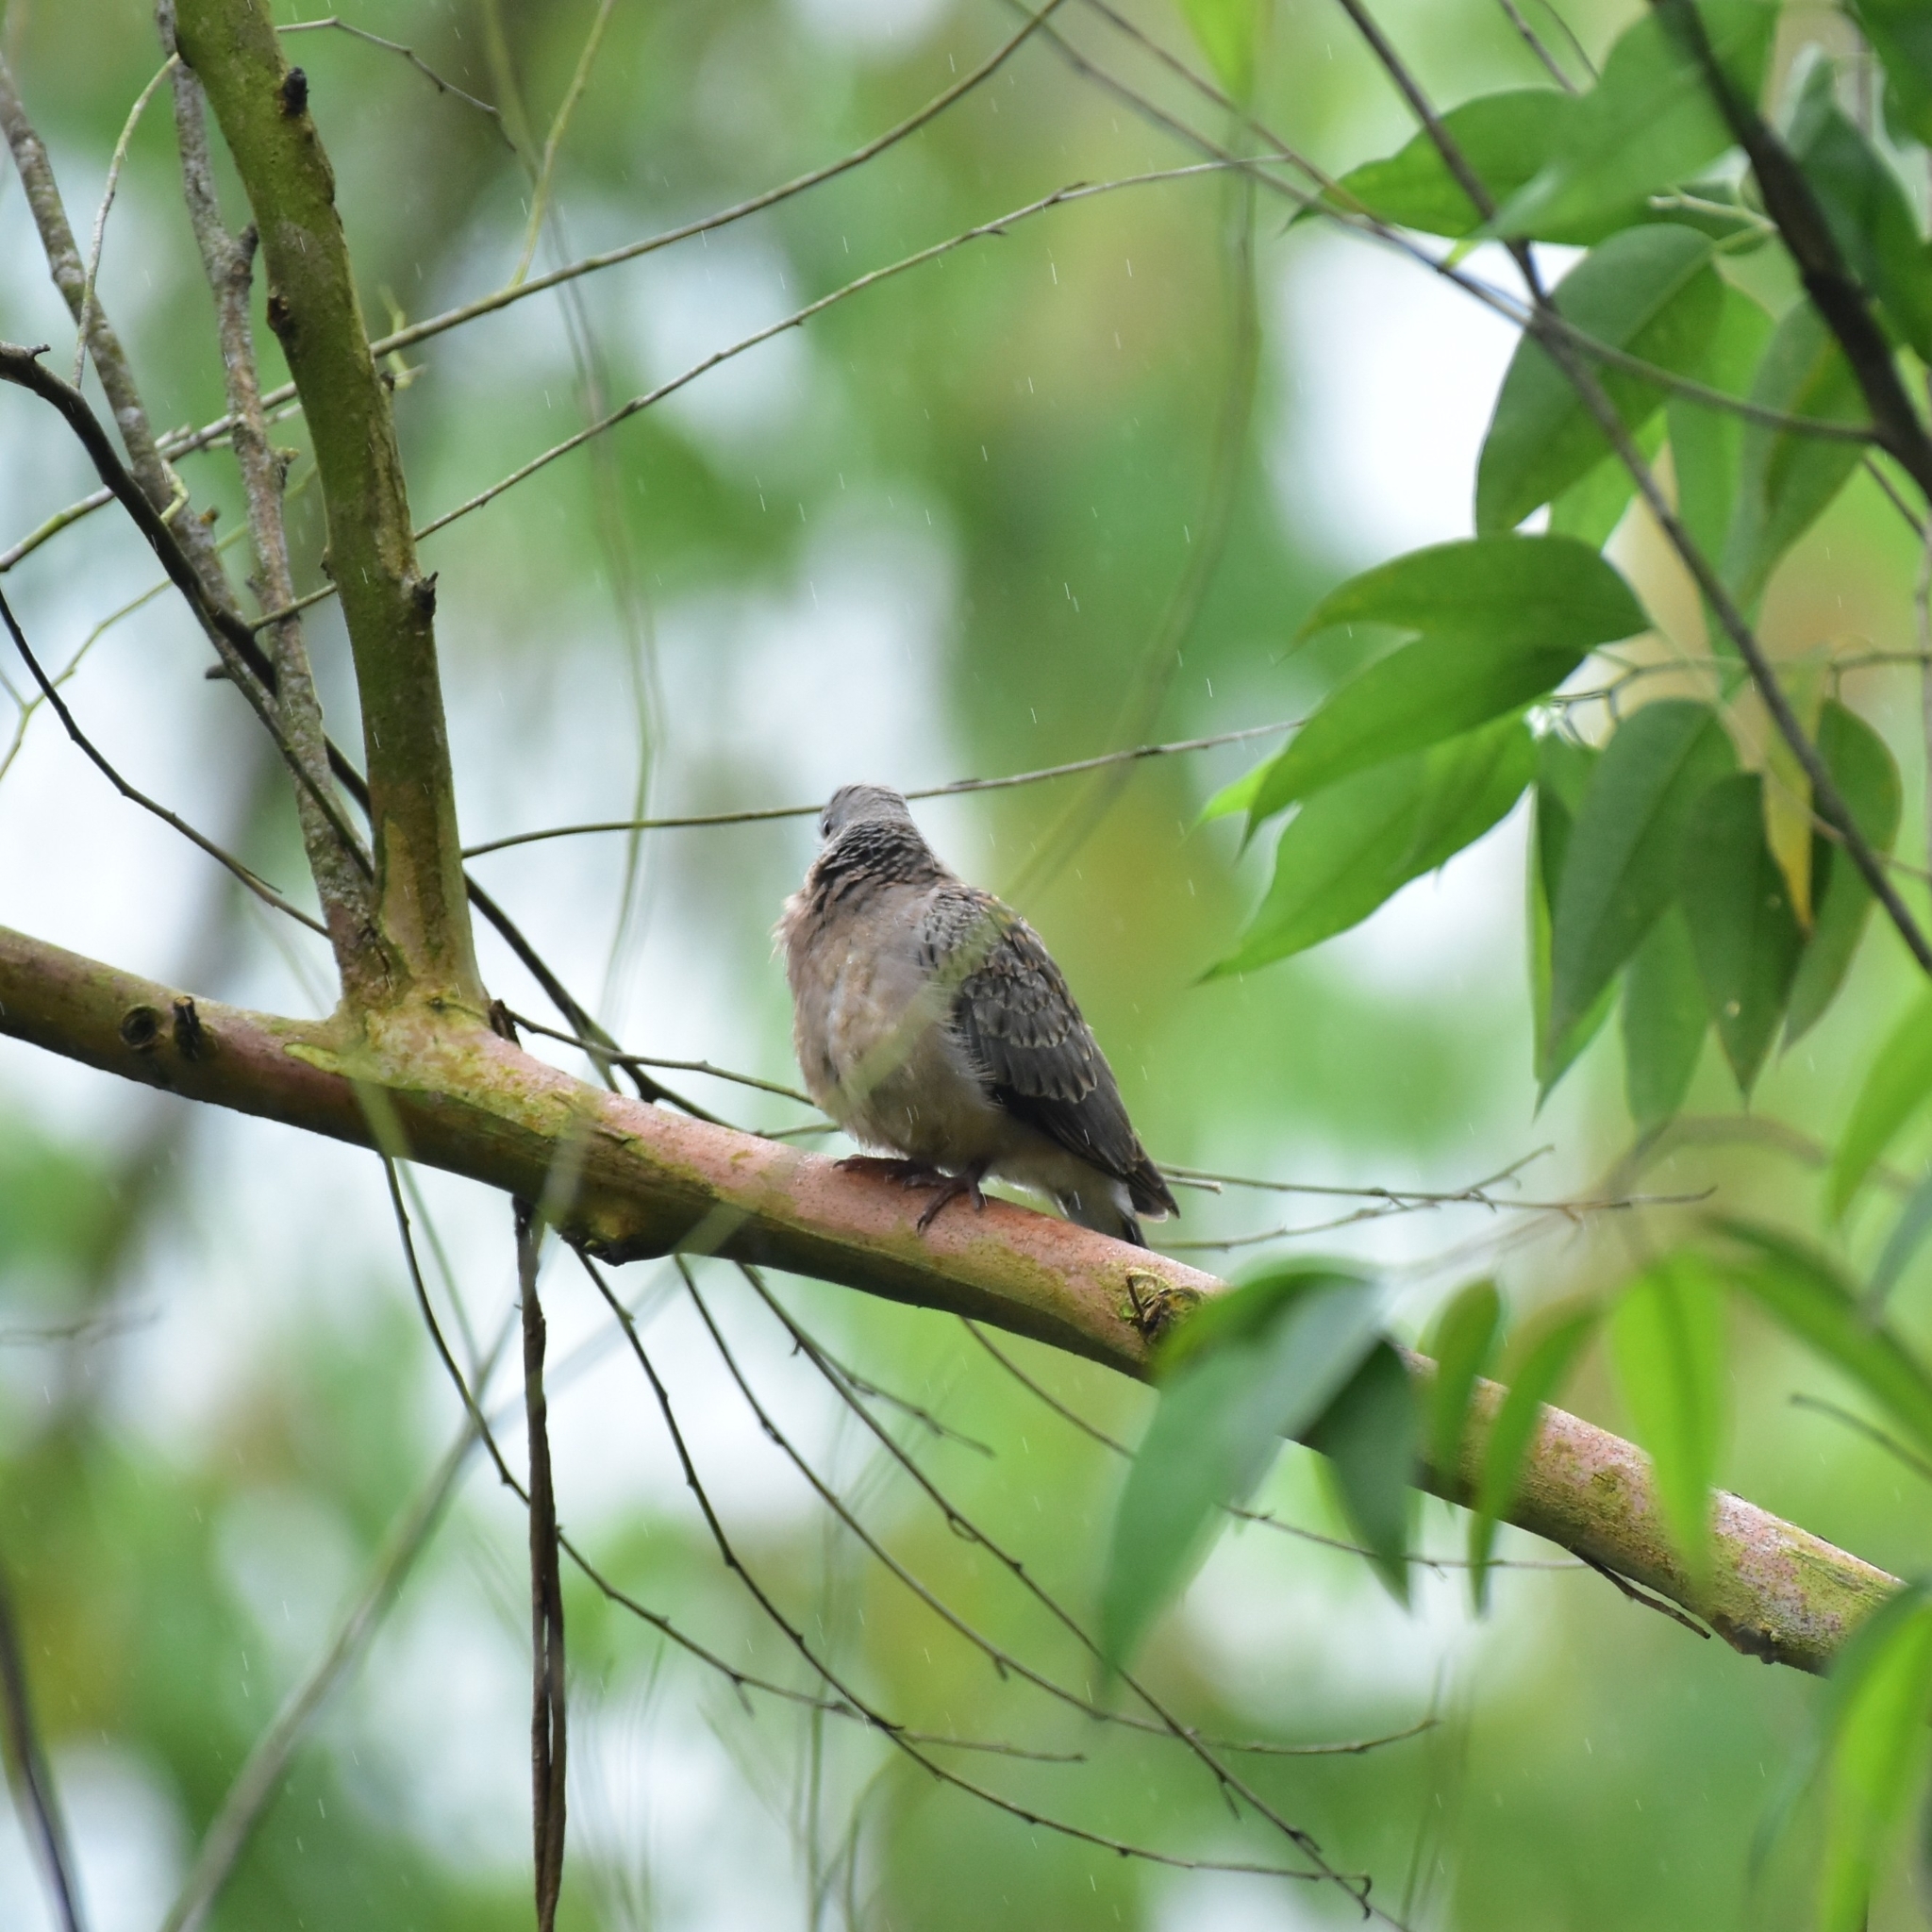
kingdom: Animalia
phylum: Chordata
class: Aves
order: Columbiformes
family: Columbidae
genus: Spilopelia
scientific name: Spilopelia chinensis
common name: Spotted dove
